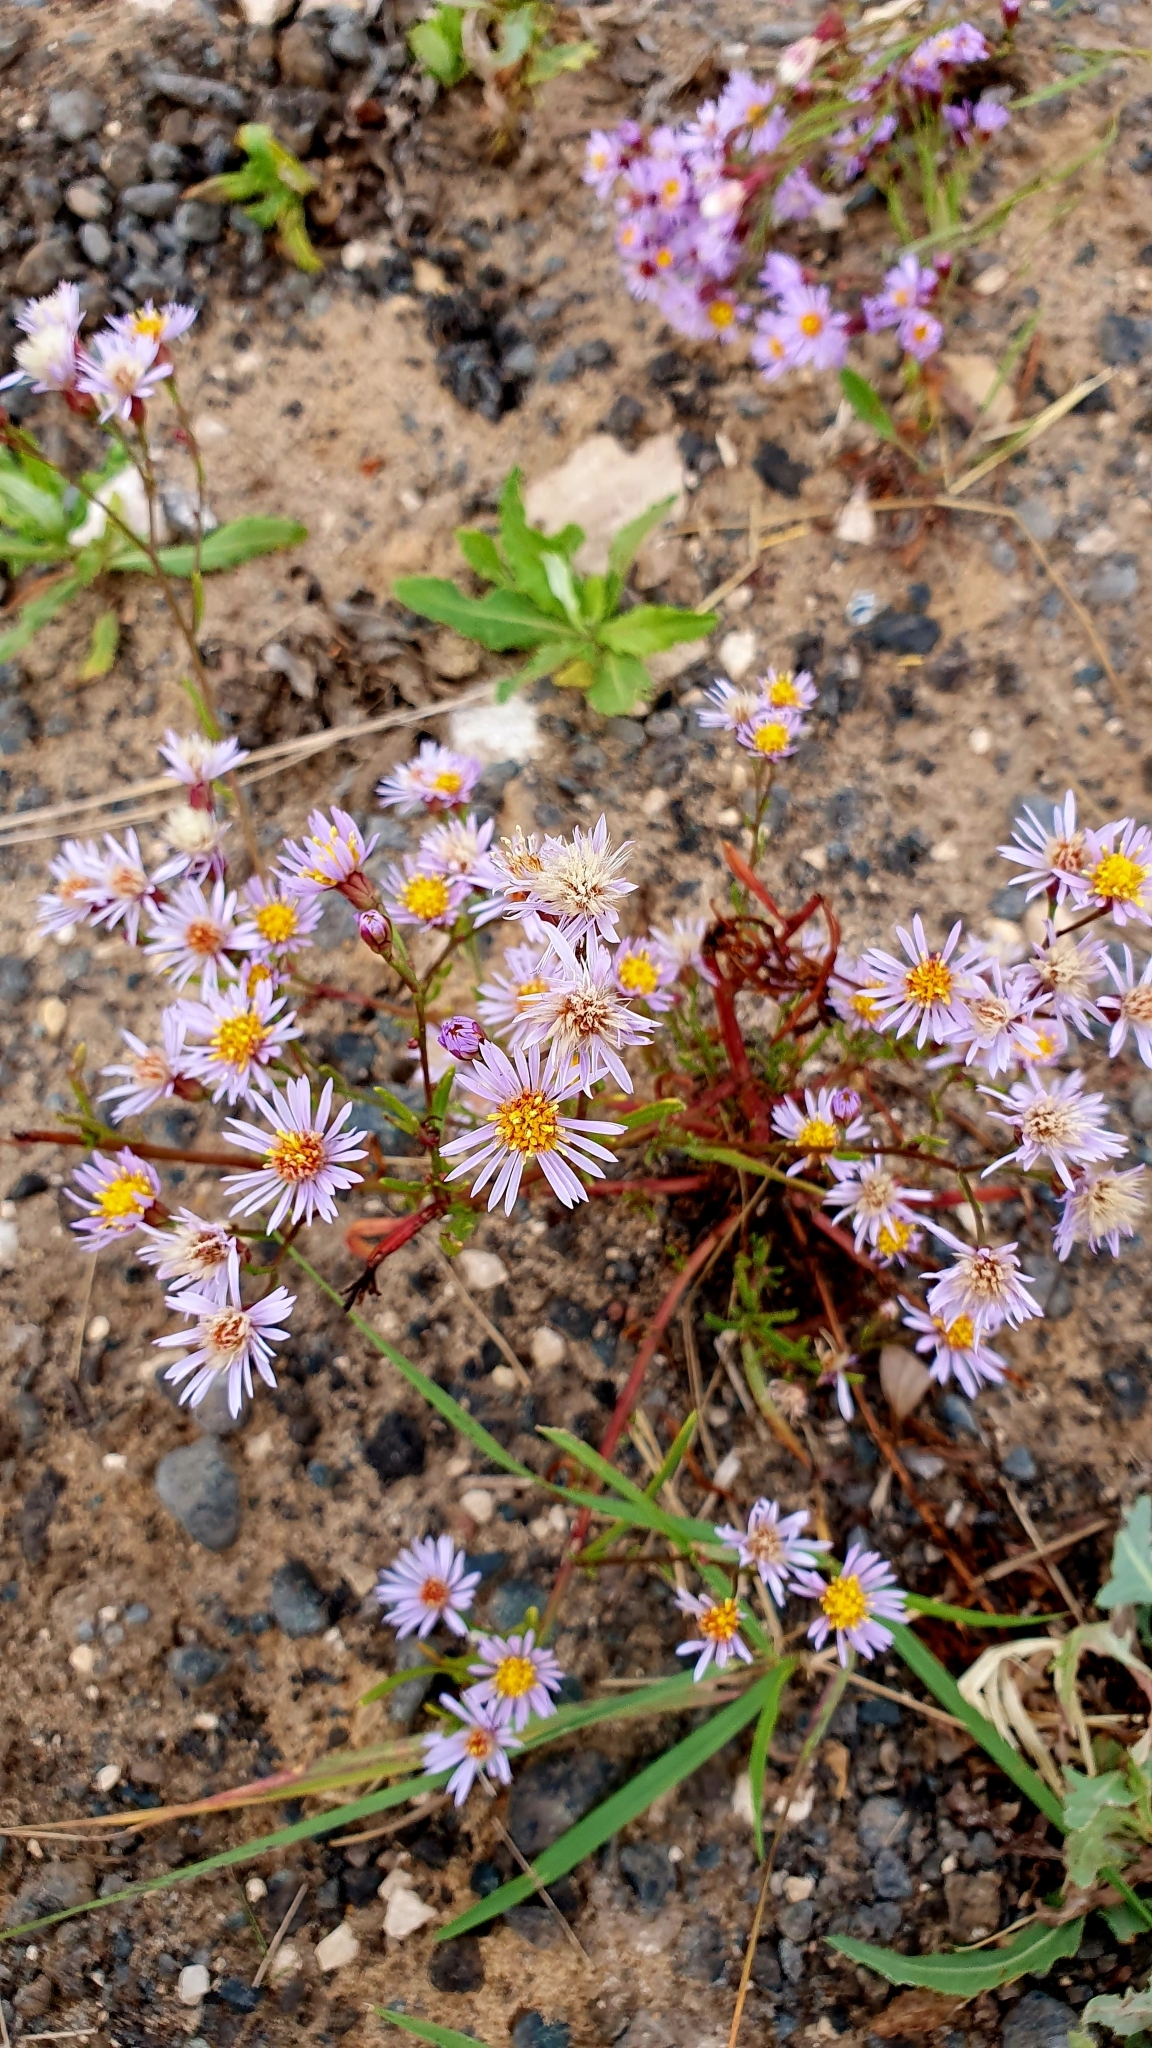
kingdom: Plantae
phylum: Tracheophyta
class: Magnoliopsida
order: Asterales
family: Asteraceae
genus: Tripolium
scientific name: Tripolium pannonicum
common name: Sea aster
